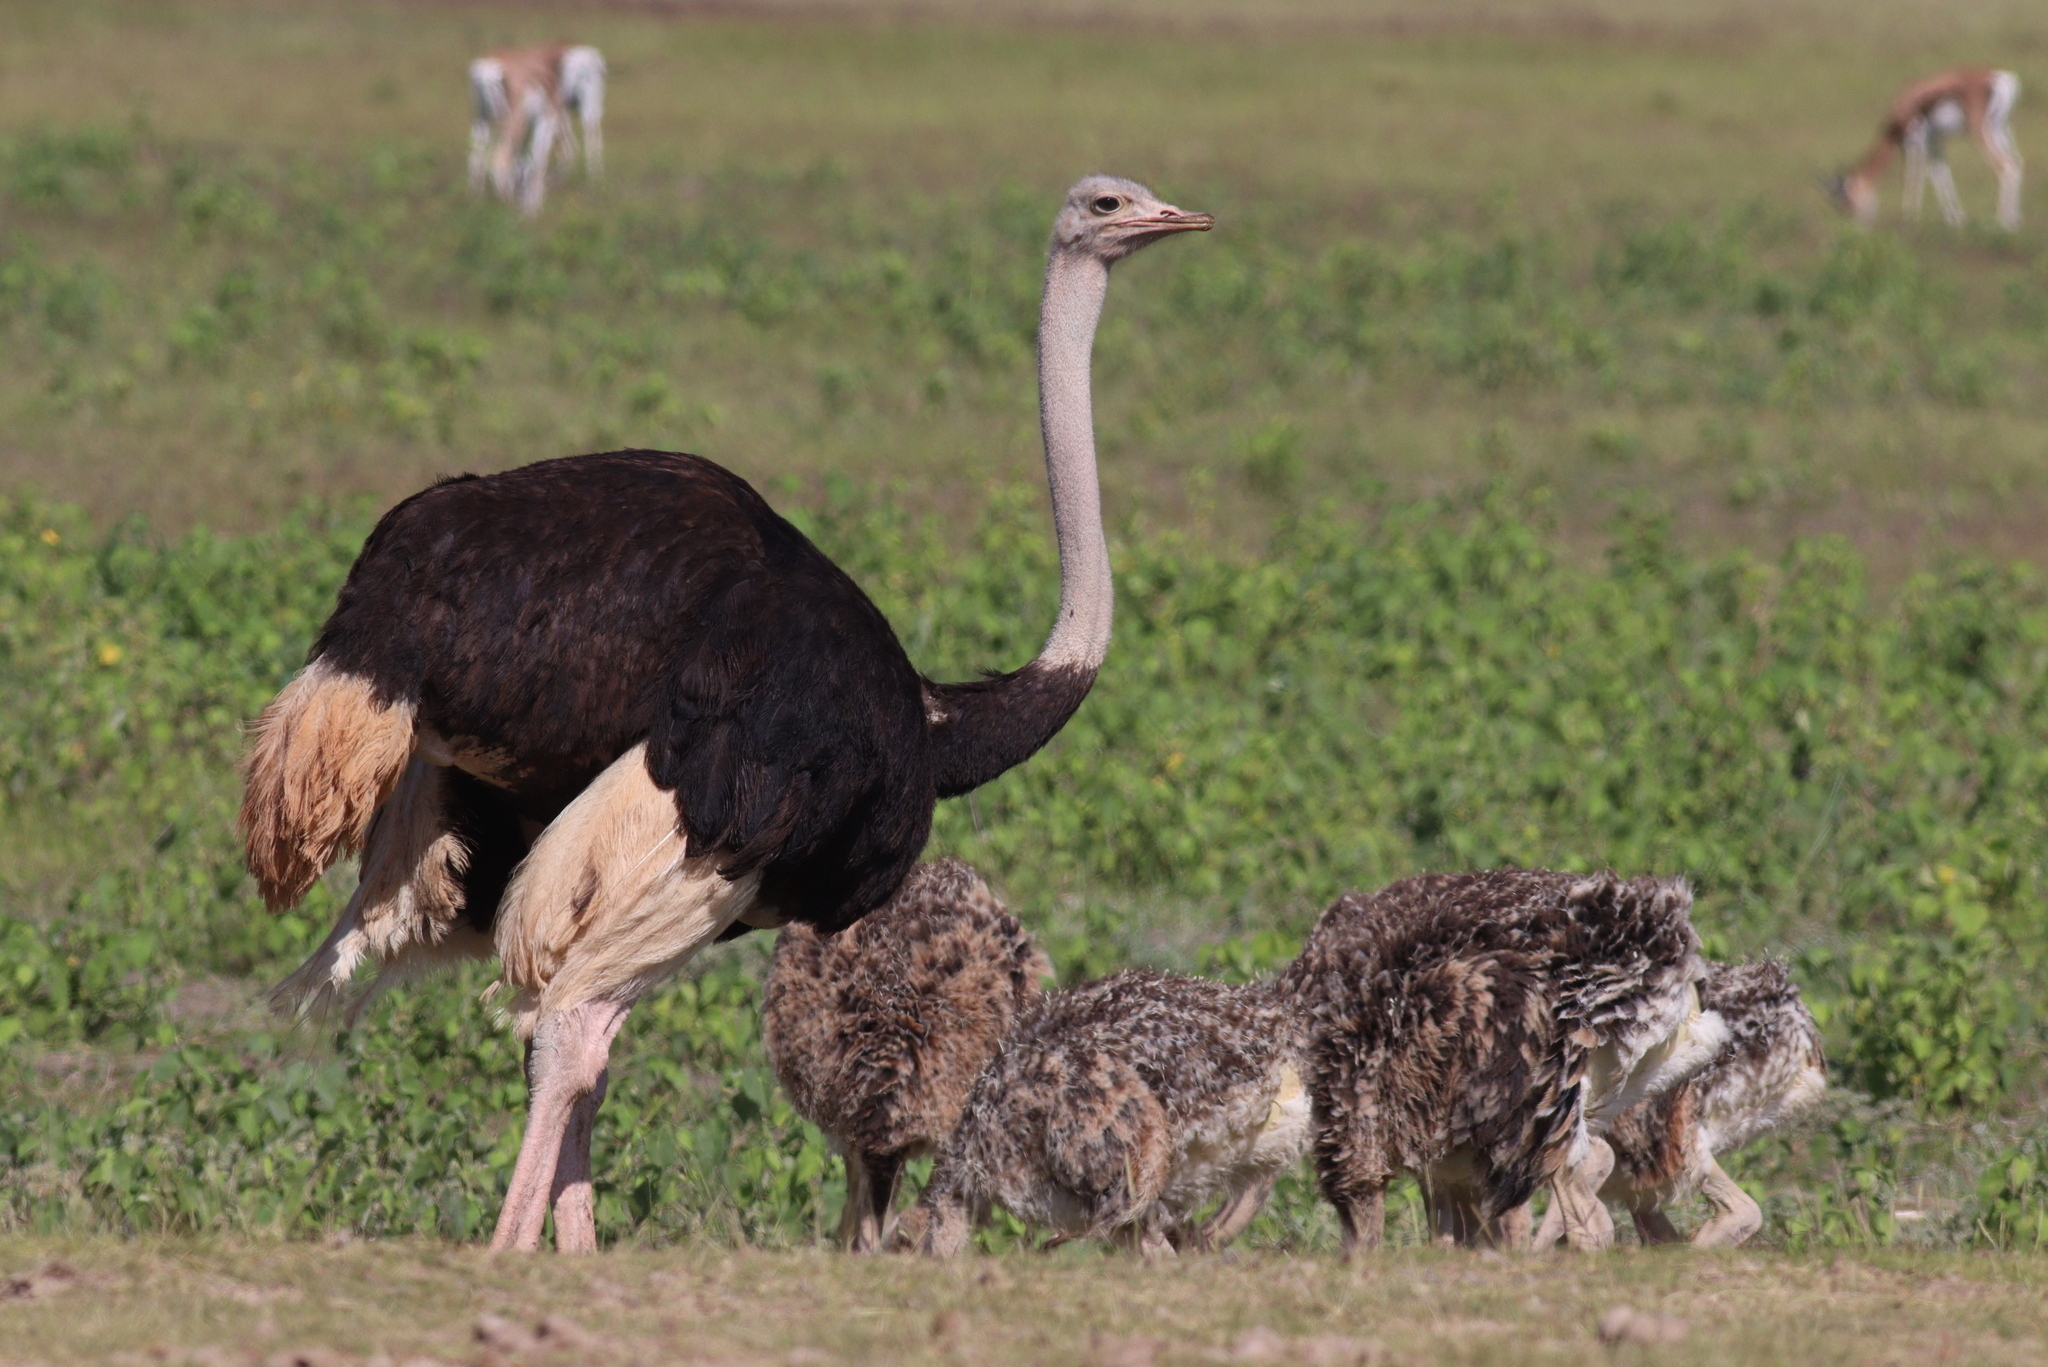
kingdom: Animalia
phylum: Chordata
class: Aves
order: Struthioniformes
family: Struthionidae
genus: Struthio
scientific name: Struthio camelus
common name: Common ostrich
